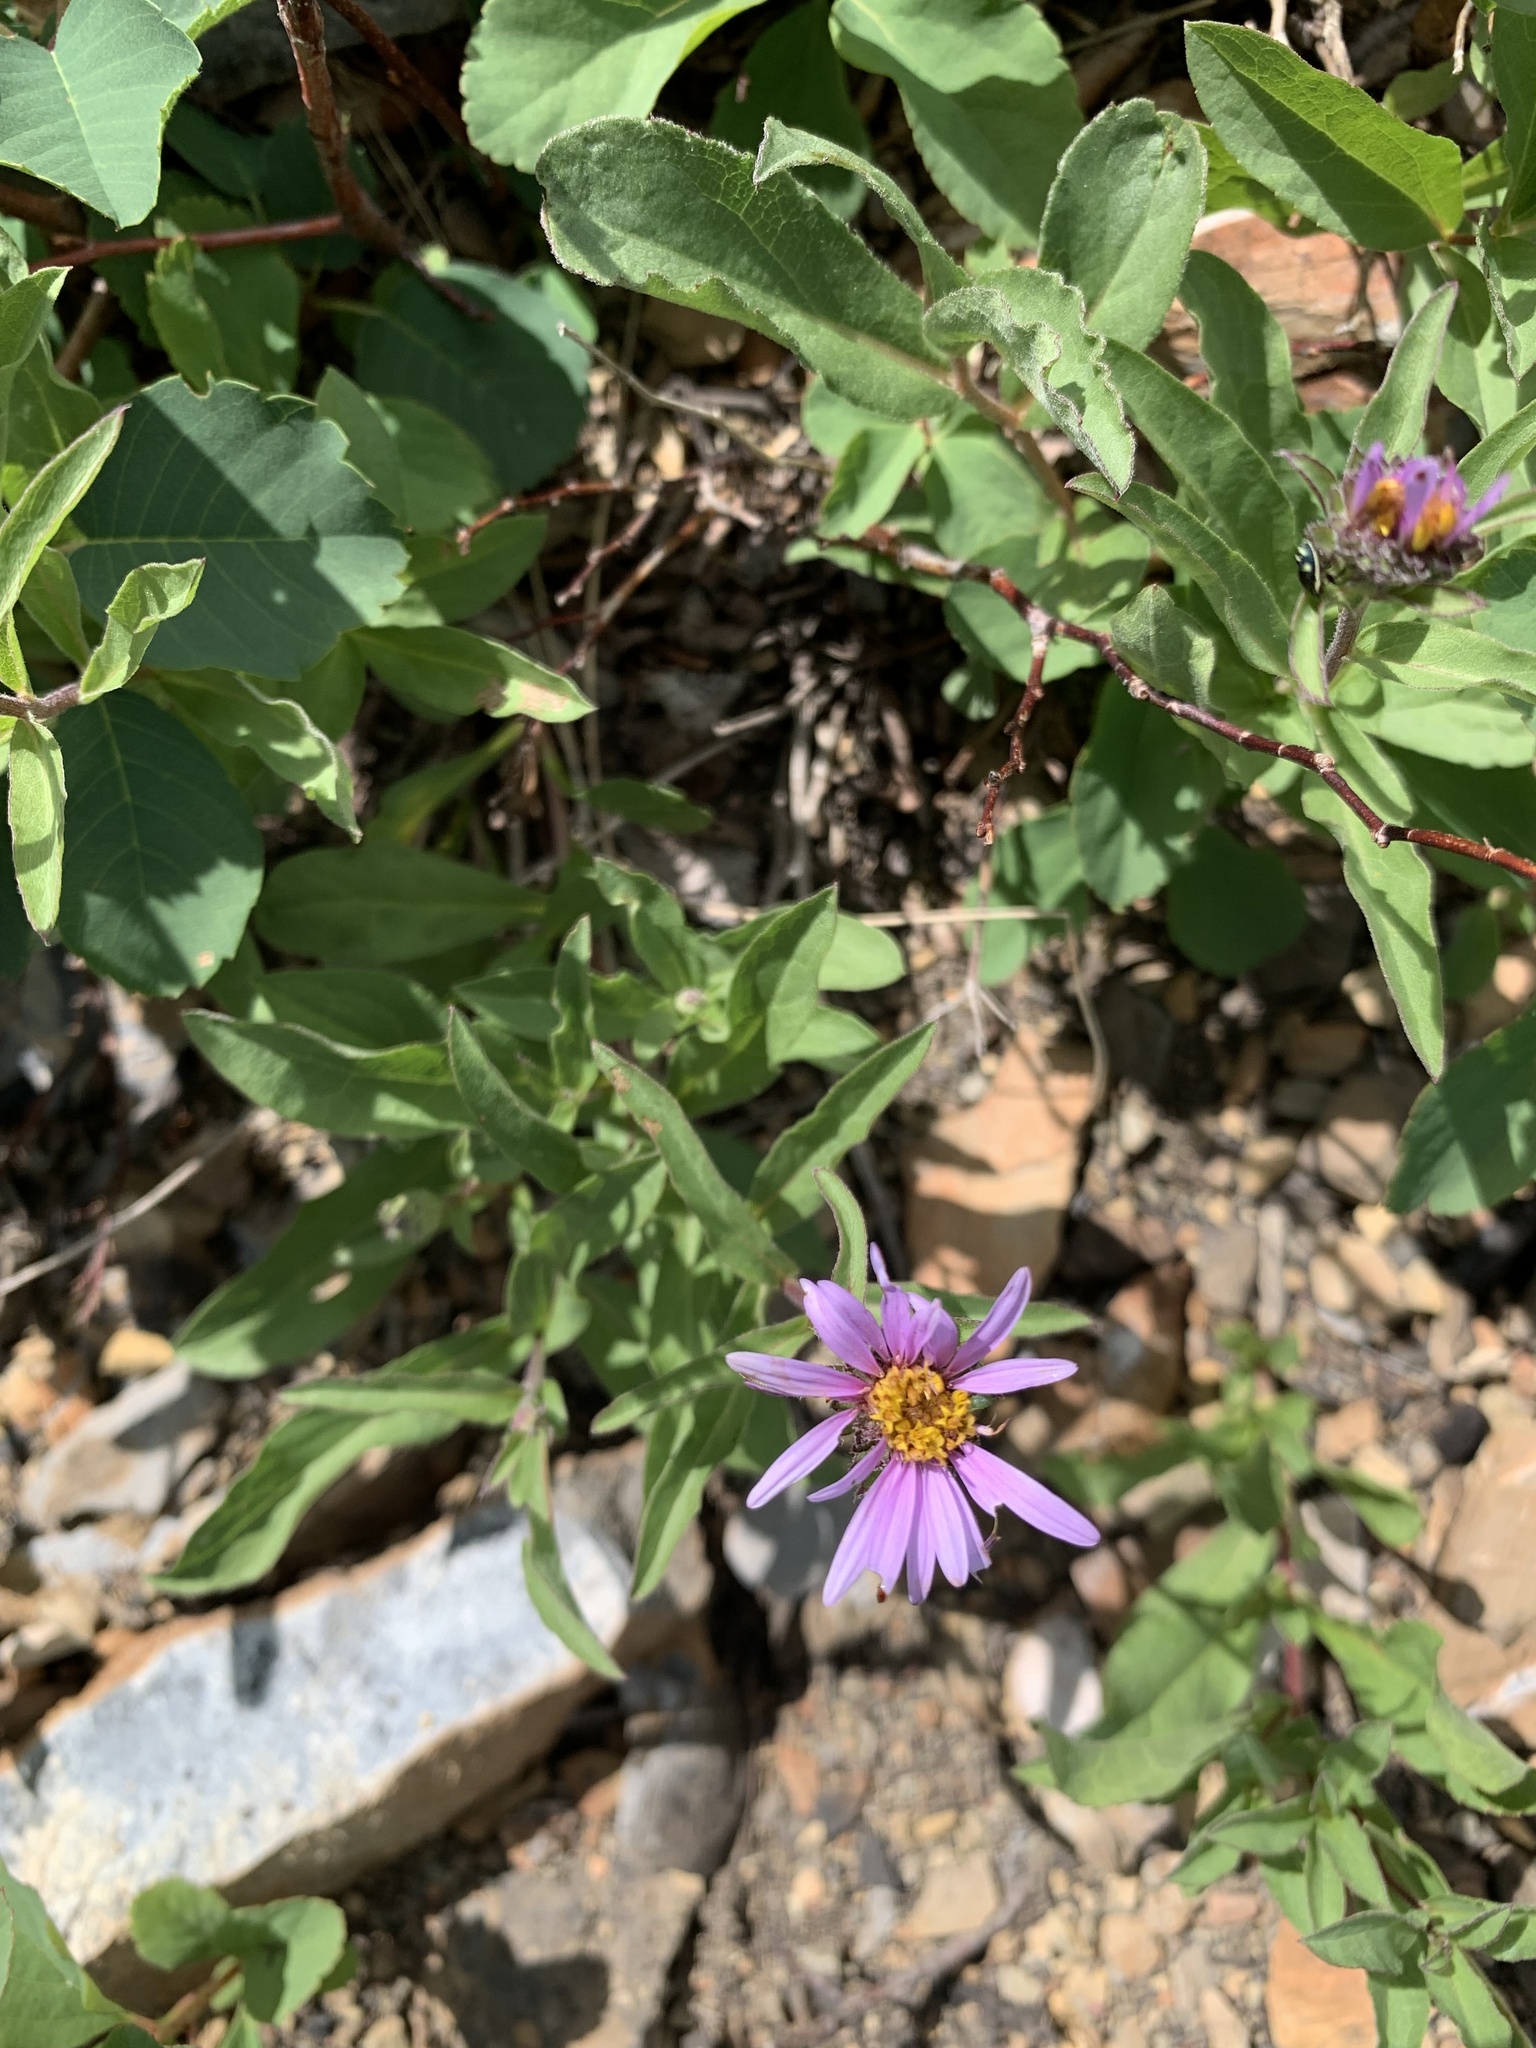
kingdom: Plantae
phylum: Tracheophyta
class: Magnoliopsida
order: Asterales
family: Asteraceae
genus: Eurybia
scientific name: Eurybia sibirica
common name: Arctic aster
